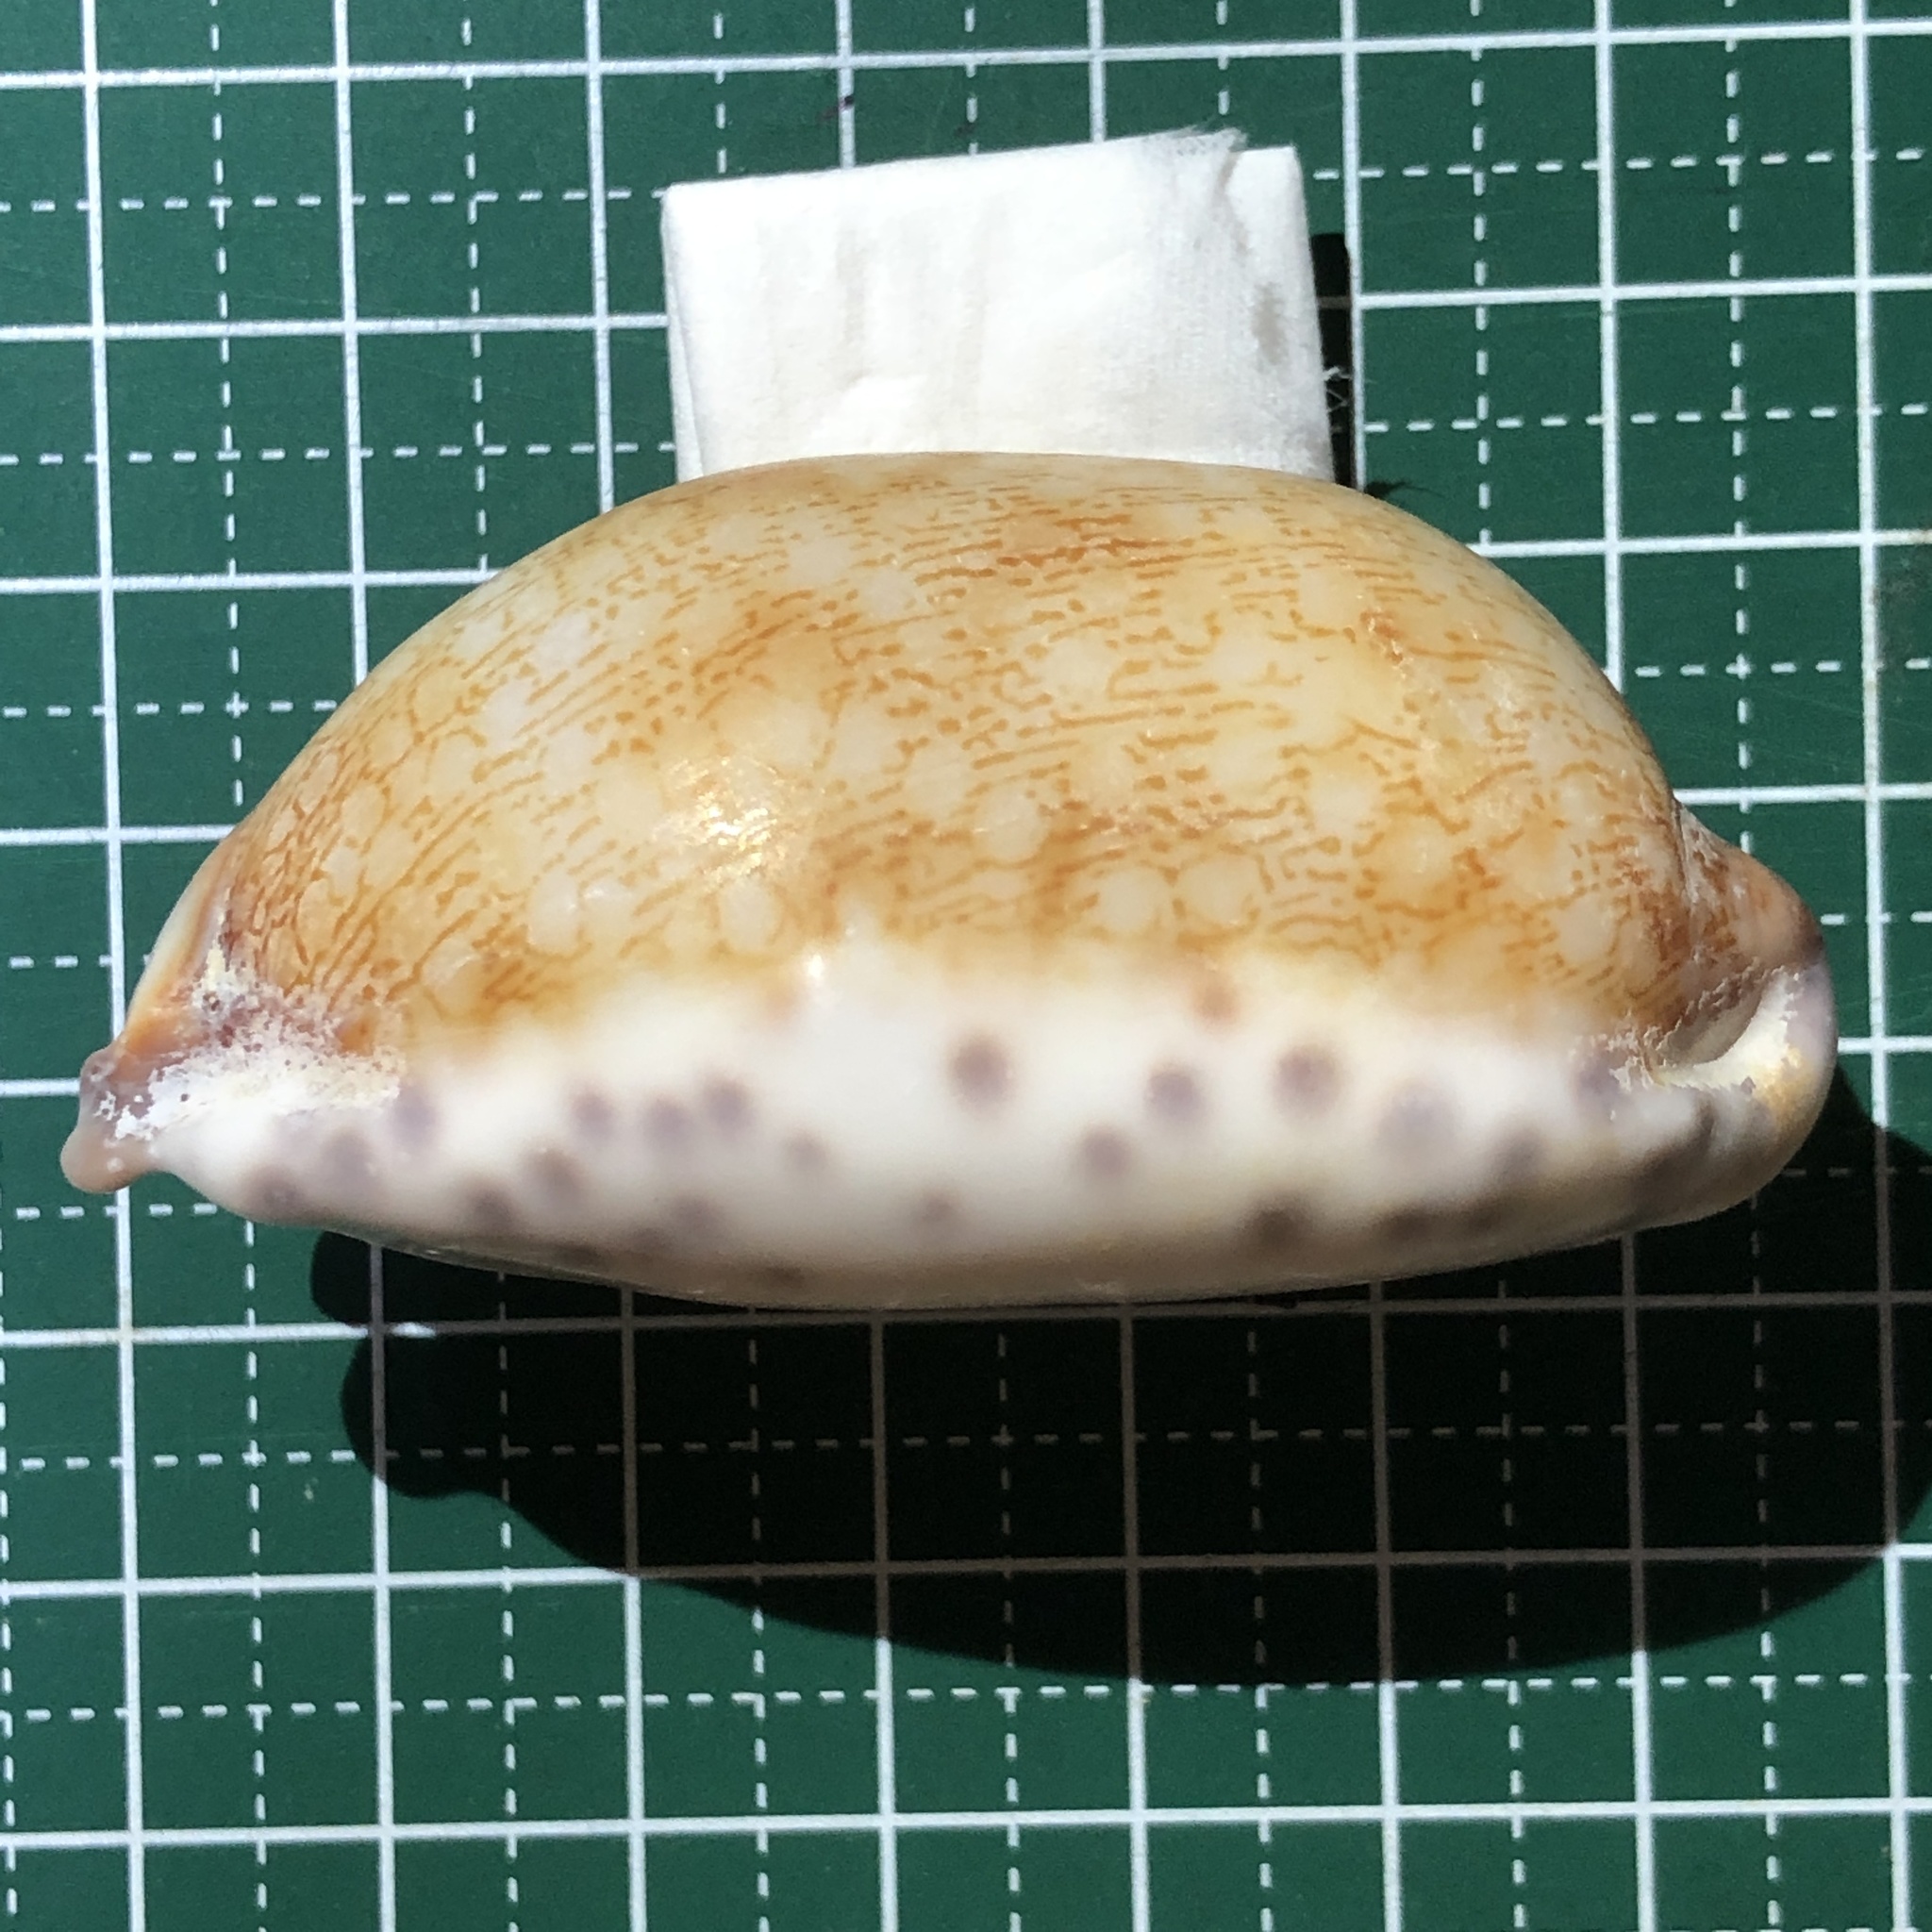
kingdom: Animalia
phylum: Mollusca
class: Gastropoda
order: Littorinimorpha
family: Cypraeidae
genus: Mauritia
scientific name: Mauritia eglantina
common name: Dog-rose cowrie
